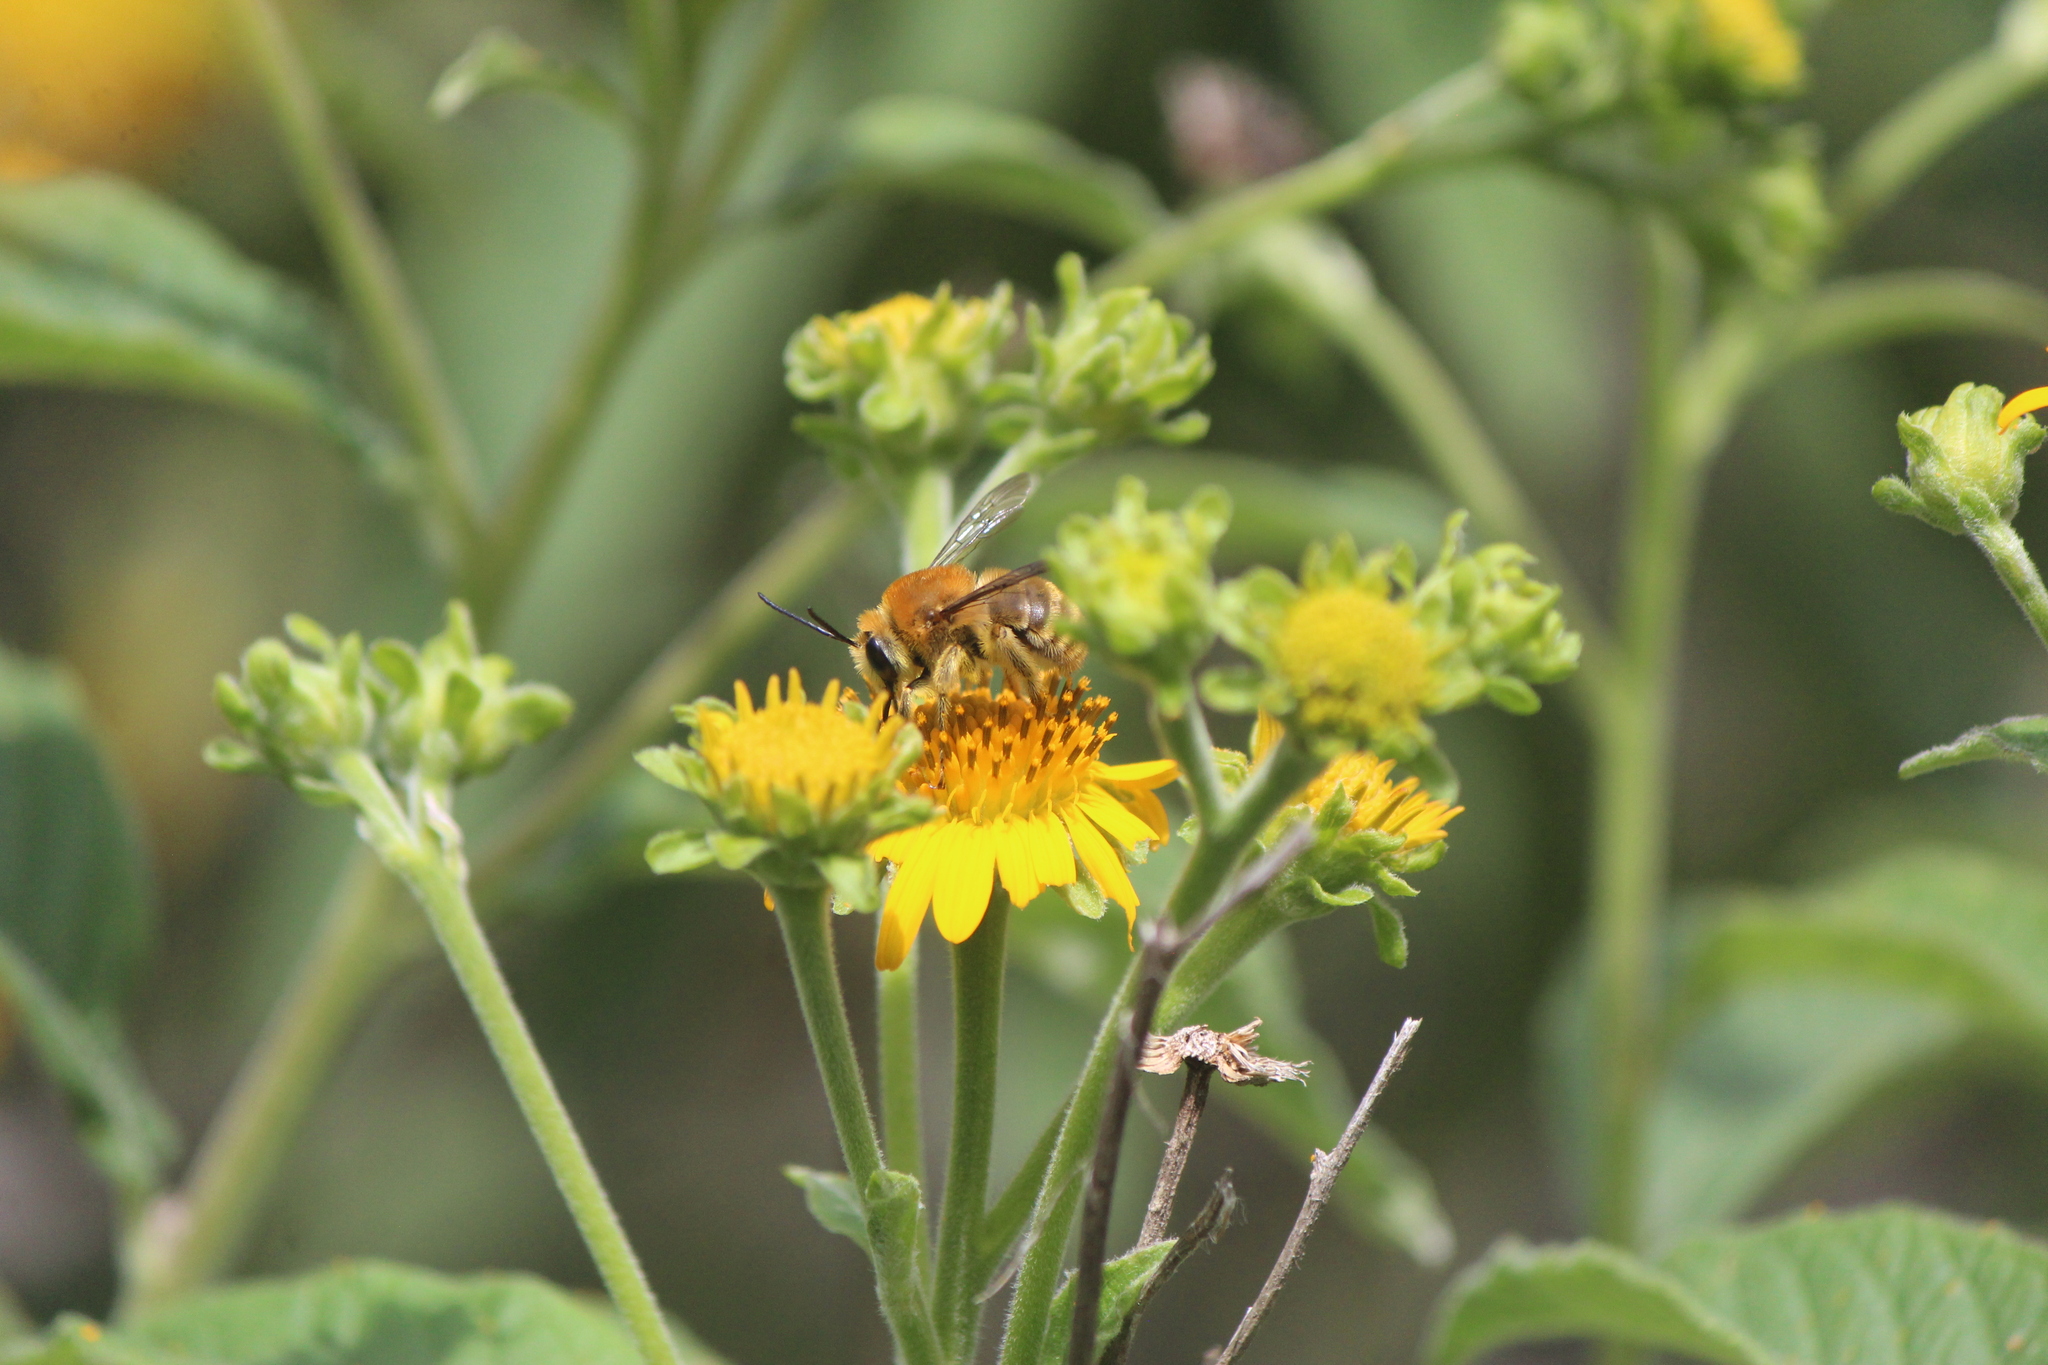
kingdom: Animalia
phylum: Arthropoda
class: Insecta
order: Hymenoptera
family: Apidae
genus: Syntrichalonia
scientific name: Syntrichalonia exquisita
